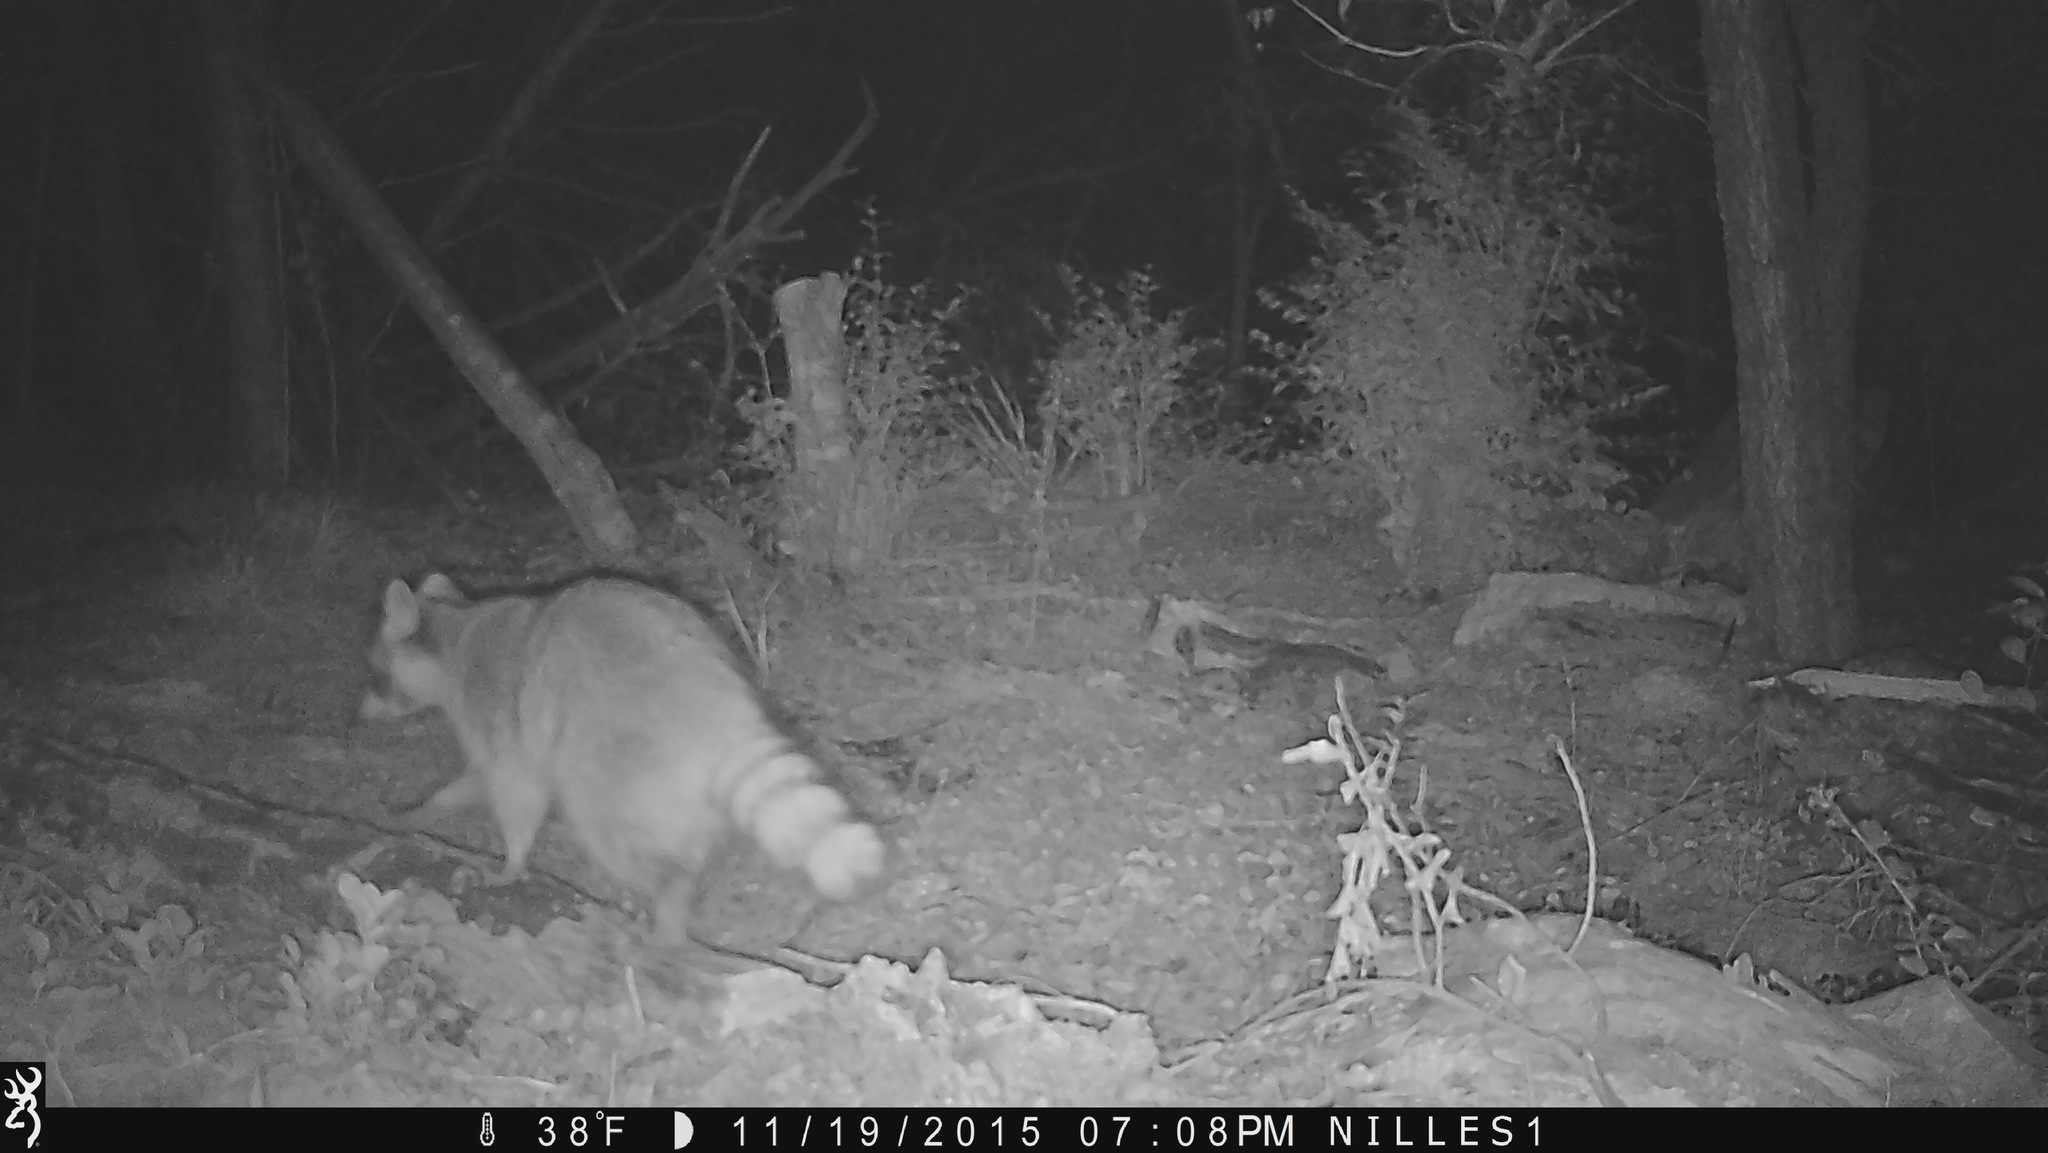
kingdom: Animalia
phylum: Chordata
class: Mammalia
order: Carnivora
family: Procyonidae
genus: Procyon
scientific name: Procyon lotor
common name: Raccoon
